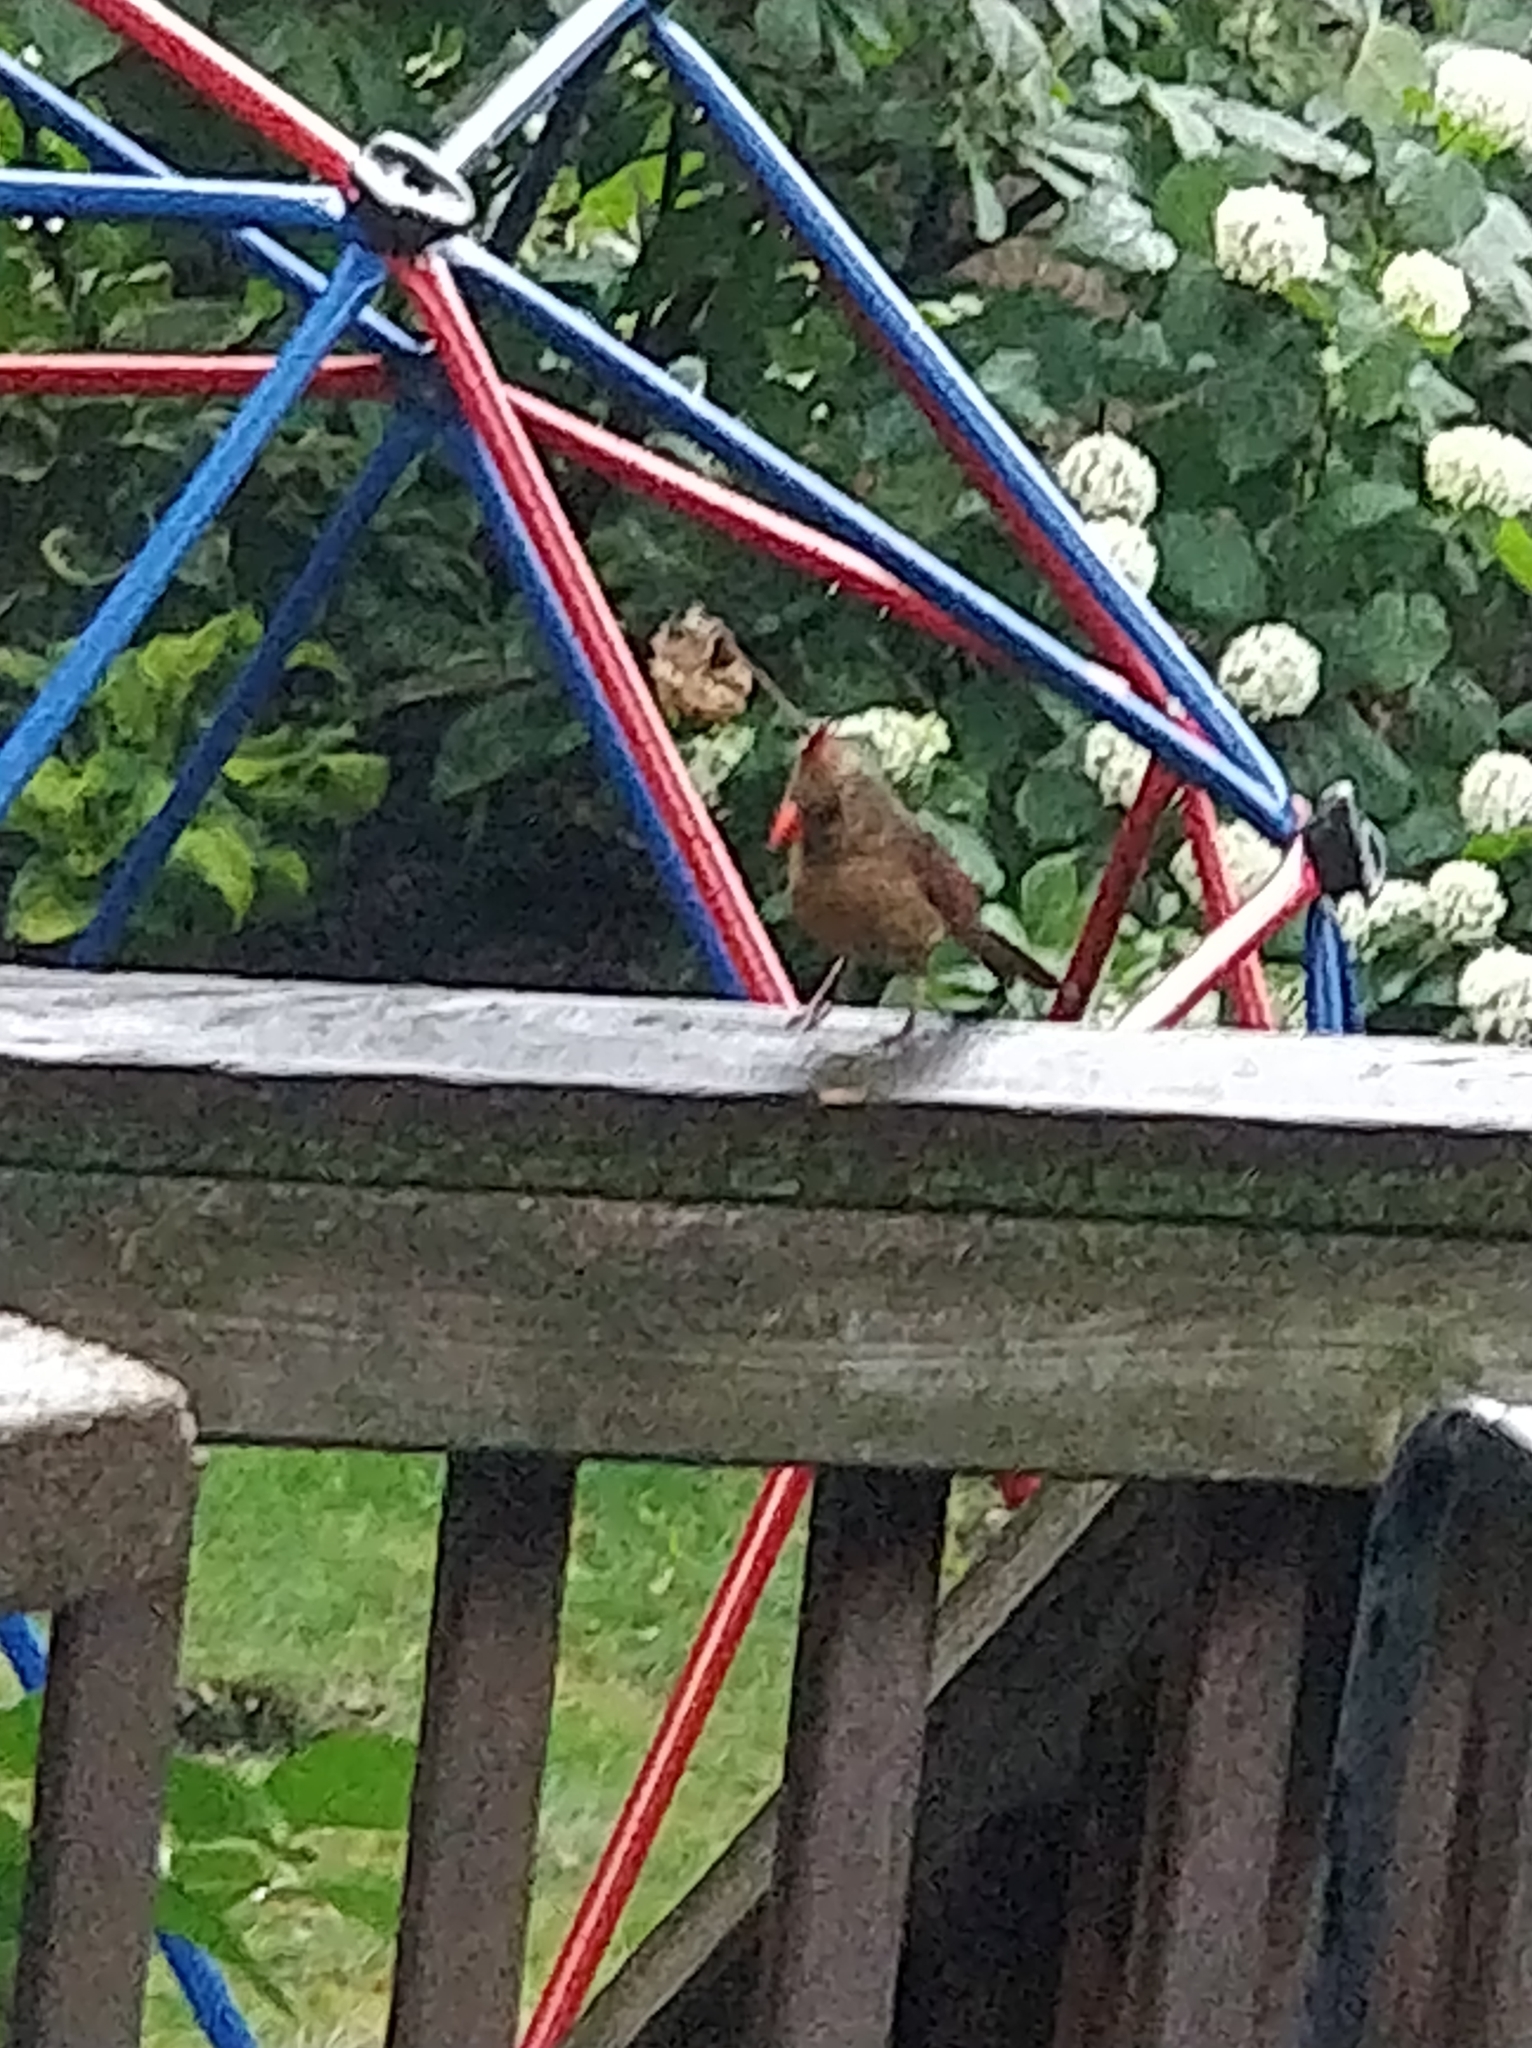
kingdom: Animalia
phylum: Chordata
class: Aves
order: Passeriformes
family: Cardinalidae
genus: Cardinalis
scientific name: Cardinalis cardinalis
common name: Northern cardinal
